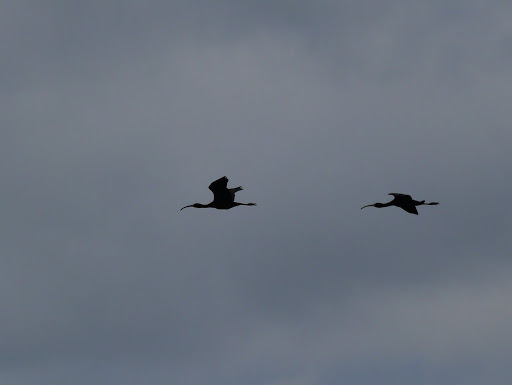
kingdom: Animalia
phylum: Chordata
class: Aves
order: Pelecaniformes
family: Threskiornithidae
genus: Plegadis
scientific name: Plegadis falcinellus
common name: Glossy ibis
